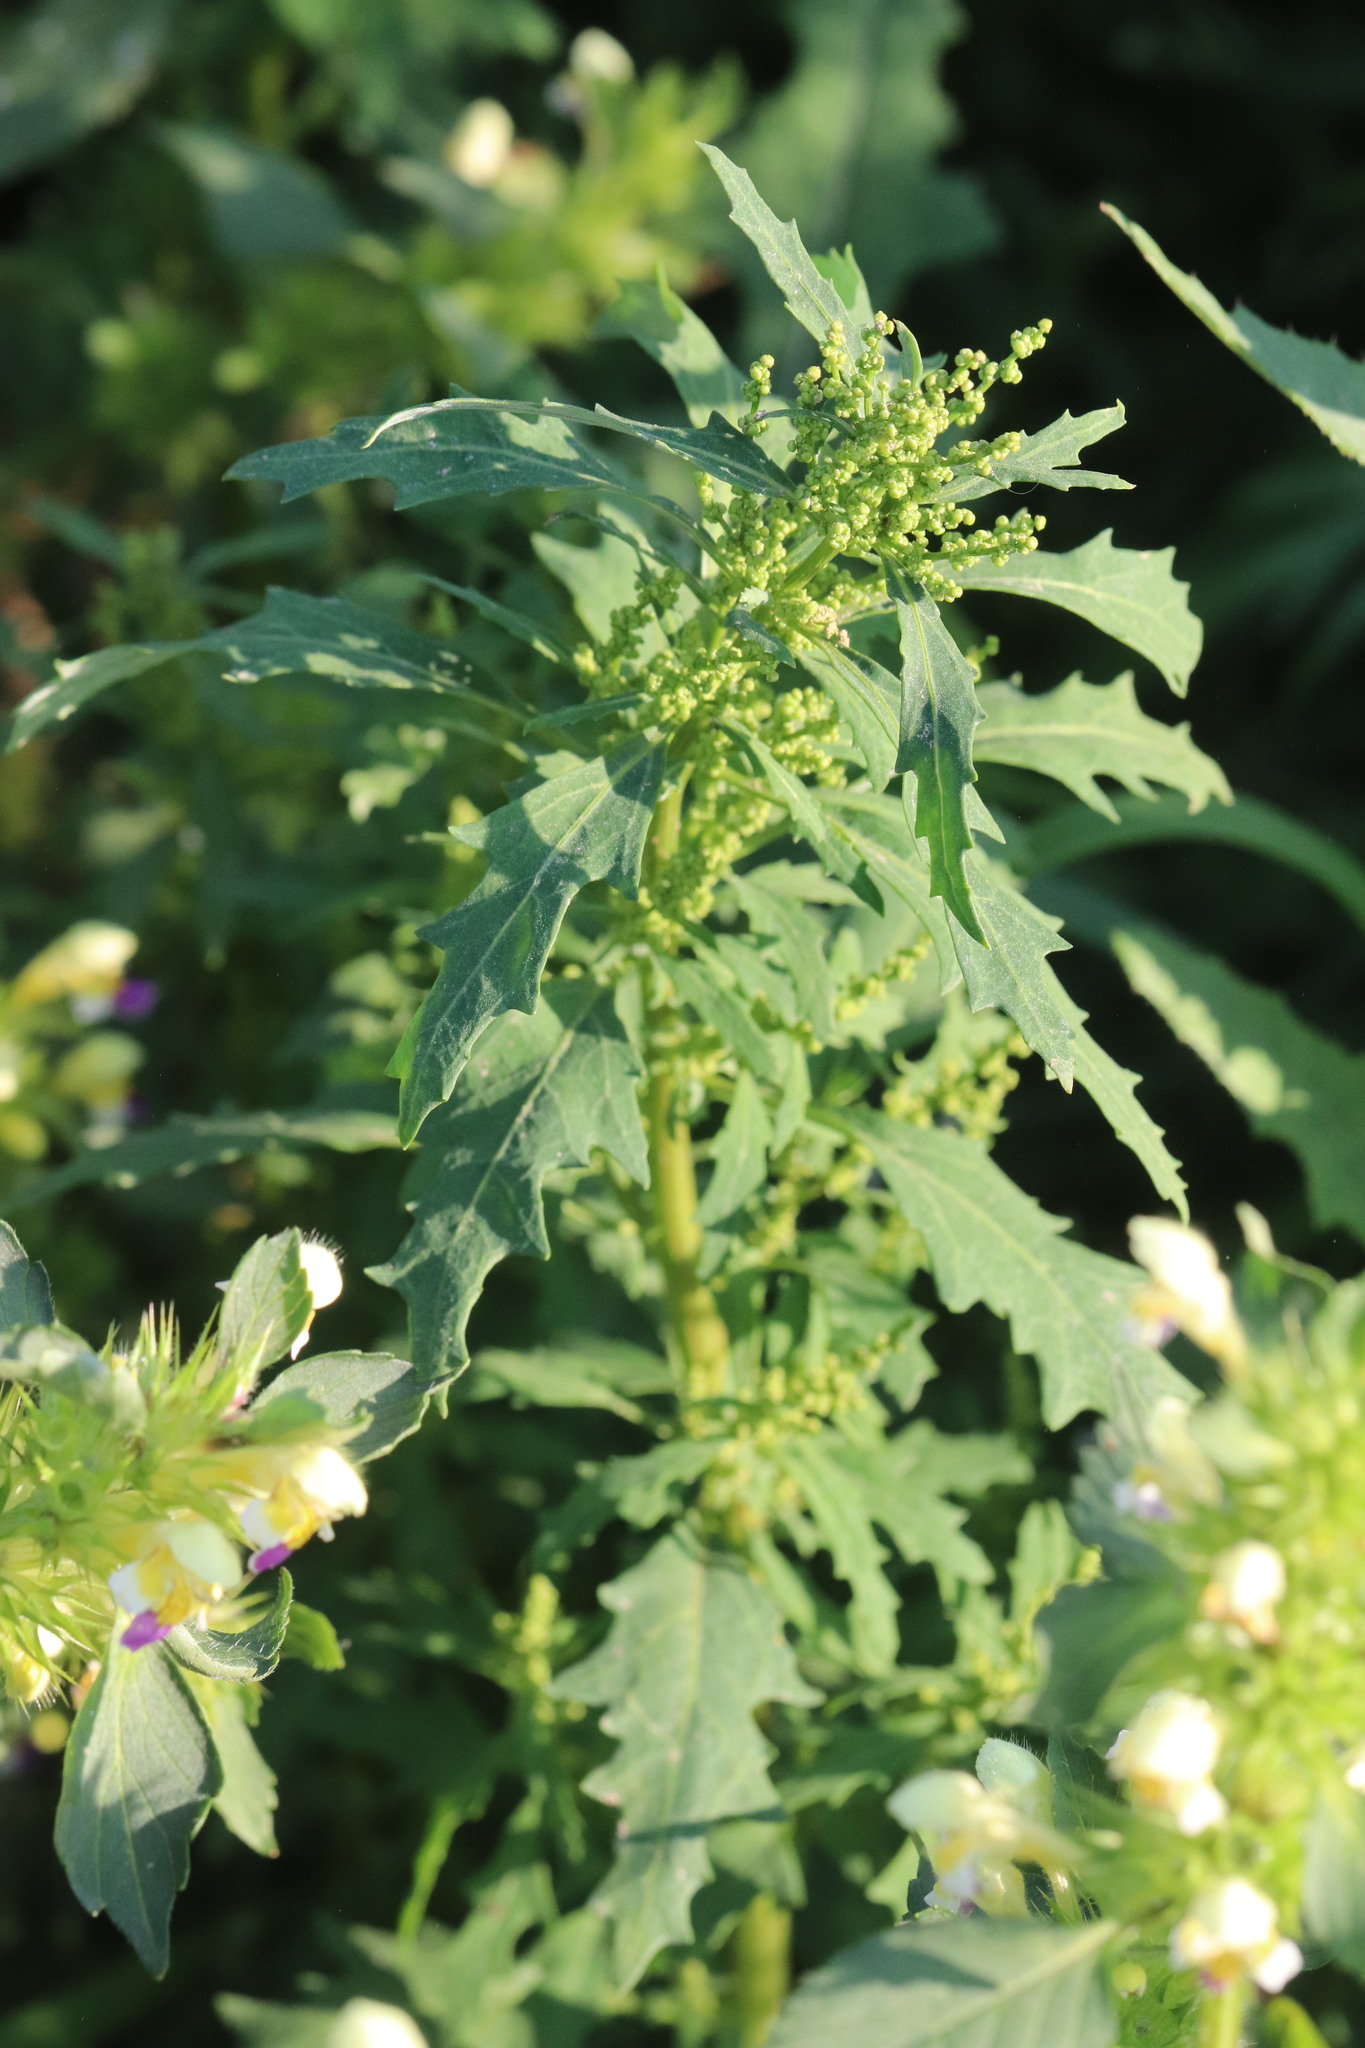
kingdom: Plantae
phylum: Tracheophyta
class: Magnoliopsida
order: Caryophyllales
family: Amaranthaceae
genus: Oxybasis
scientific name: Oxybasis glauca
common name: Glaucous goosefoot
